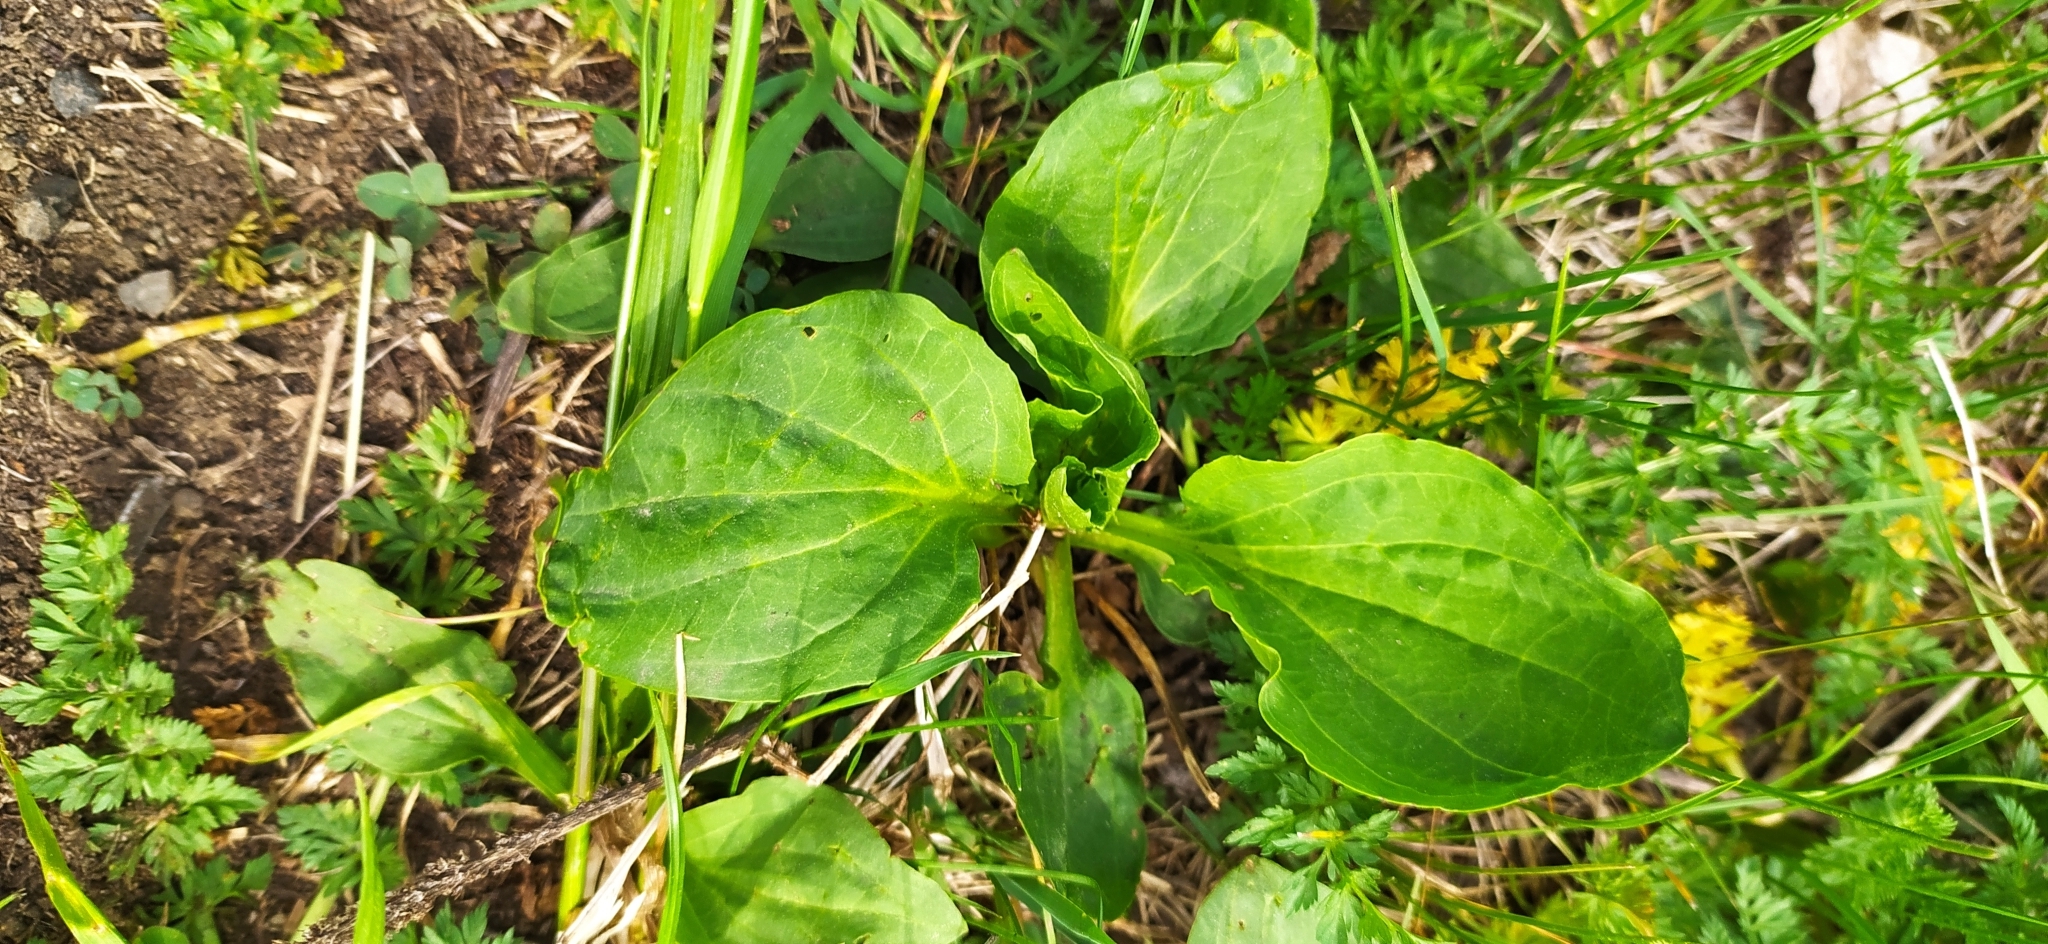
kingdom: Plantae
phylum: Tracheophyta
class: Magnoliopsida
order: Lamiales
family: Plantaginaceae
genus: Plantago
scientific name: Plantago major
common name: Common plantain
